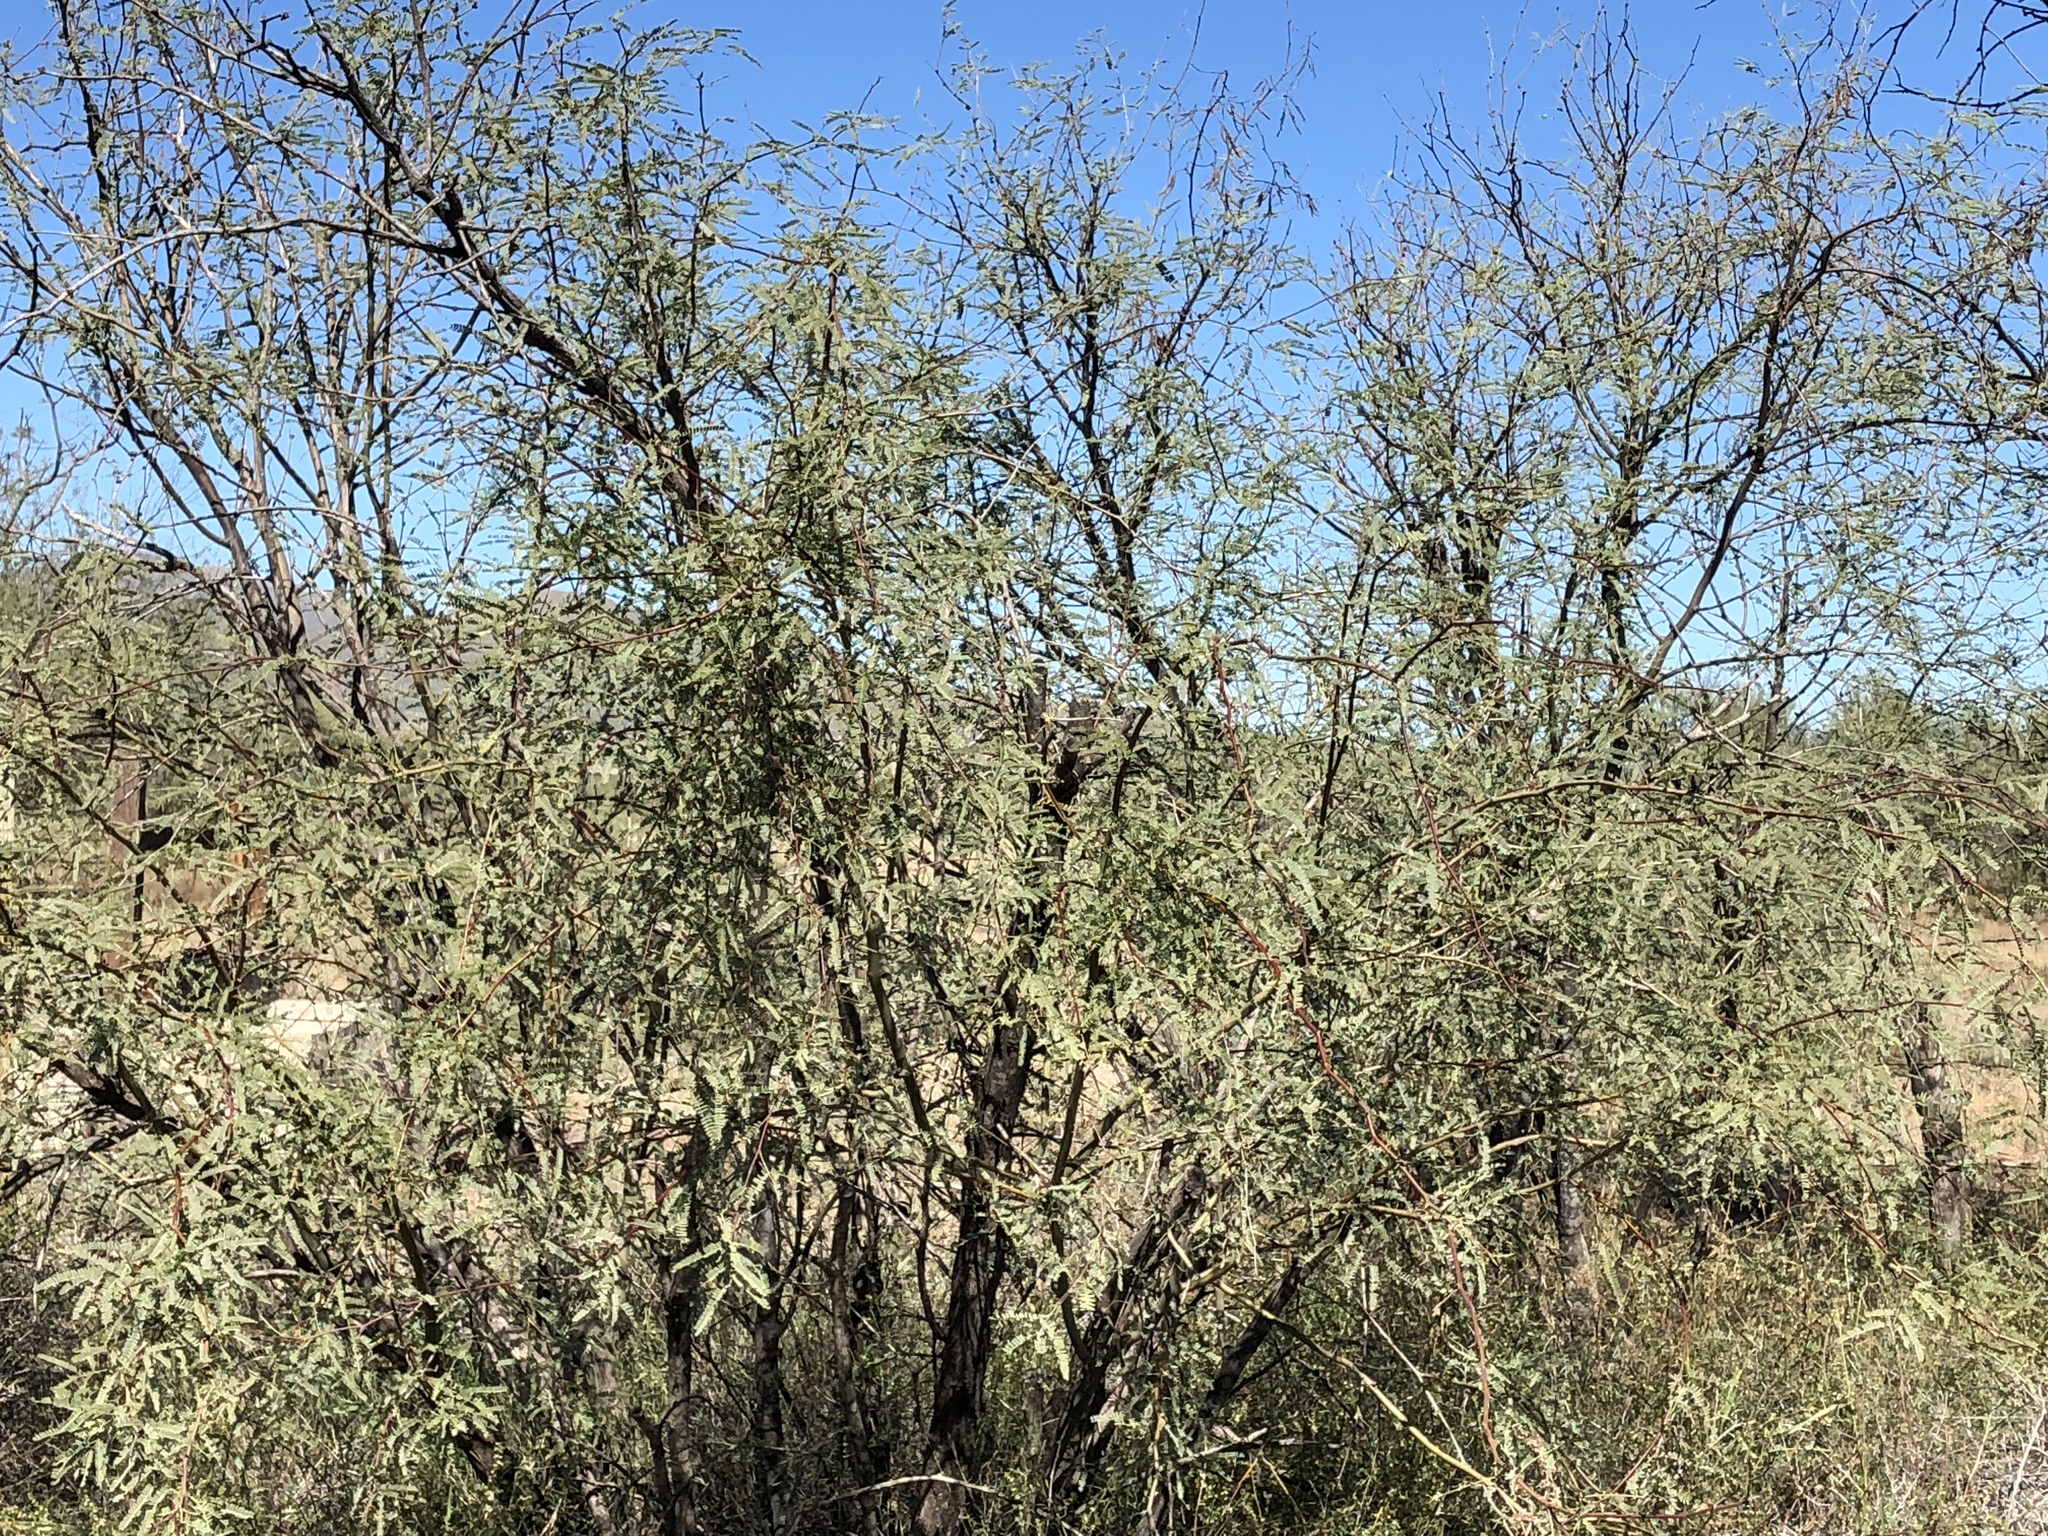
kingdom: Plantae
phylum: Tracheophyta
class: Magnoliopsida
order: Fabales
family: Fabaceae
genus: Prosopis
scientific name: Prosopis velutina
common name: Velvet mesquite
